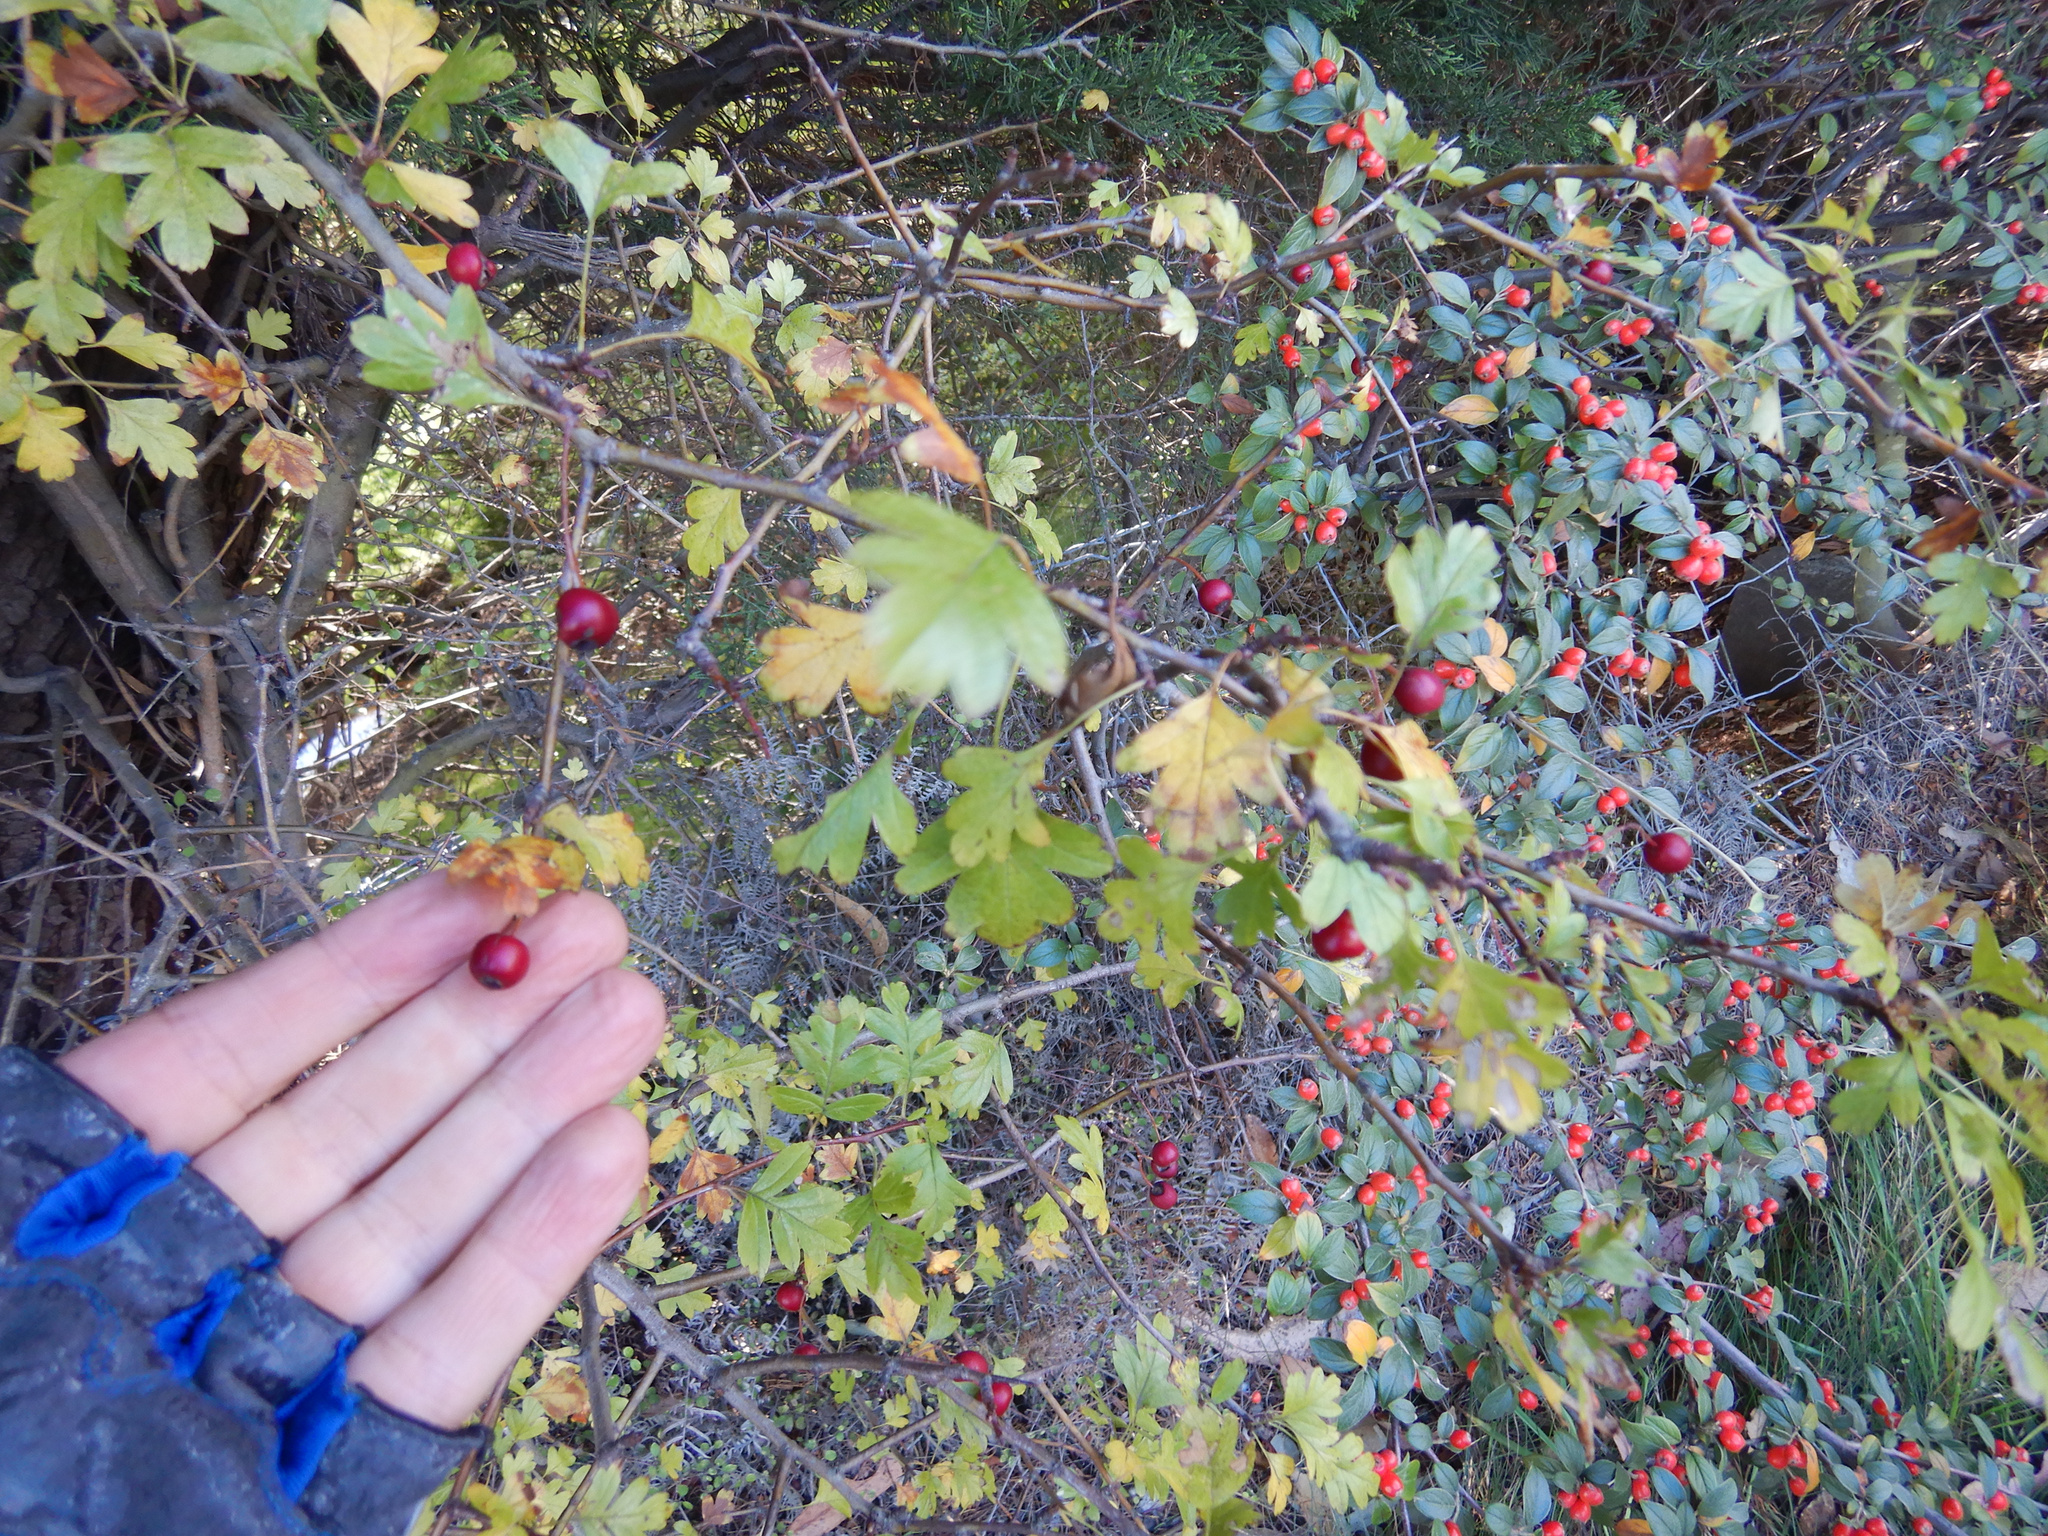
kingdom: Plantae
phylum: Tracheophyta
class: Magnoliopsida
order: Rosales
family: Rosaceae
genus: Crataegus
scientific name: Crataegus monogyna
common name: Hawthorn
